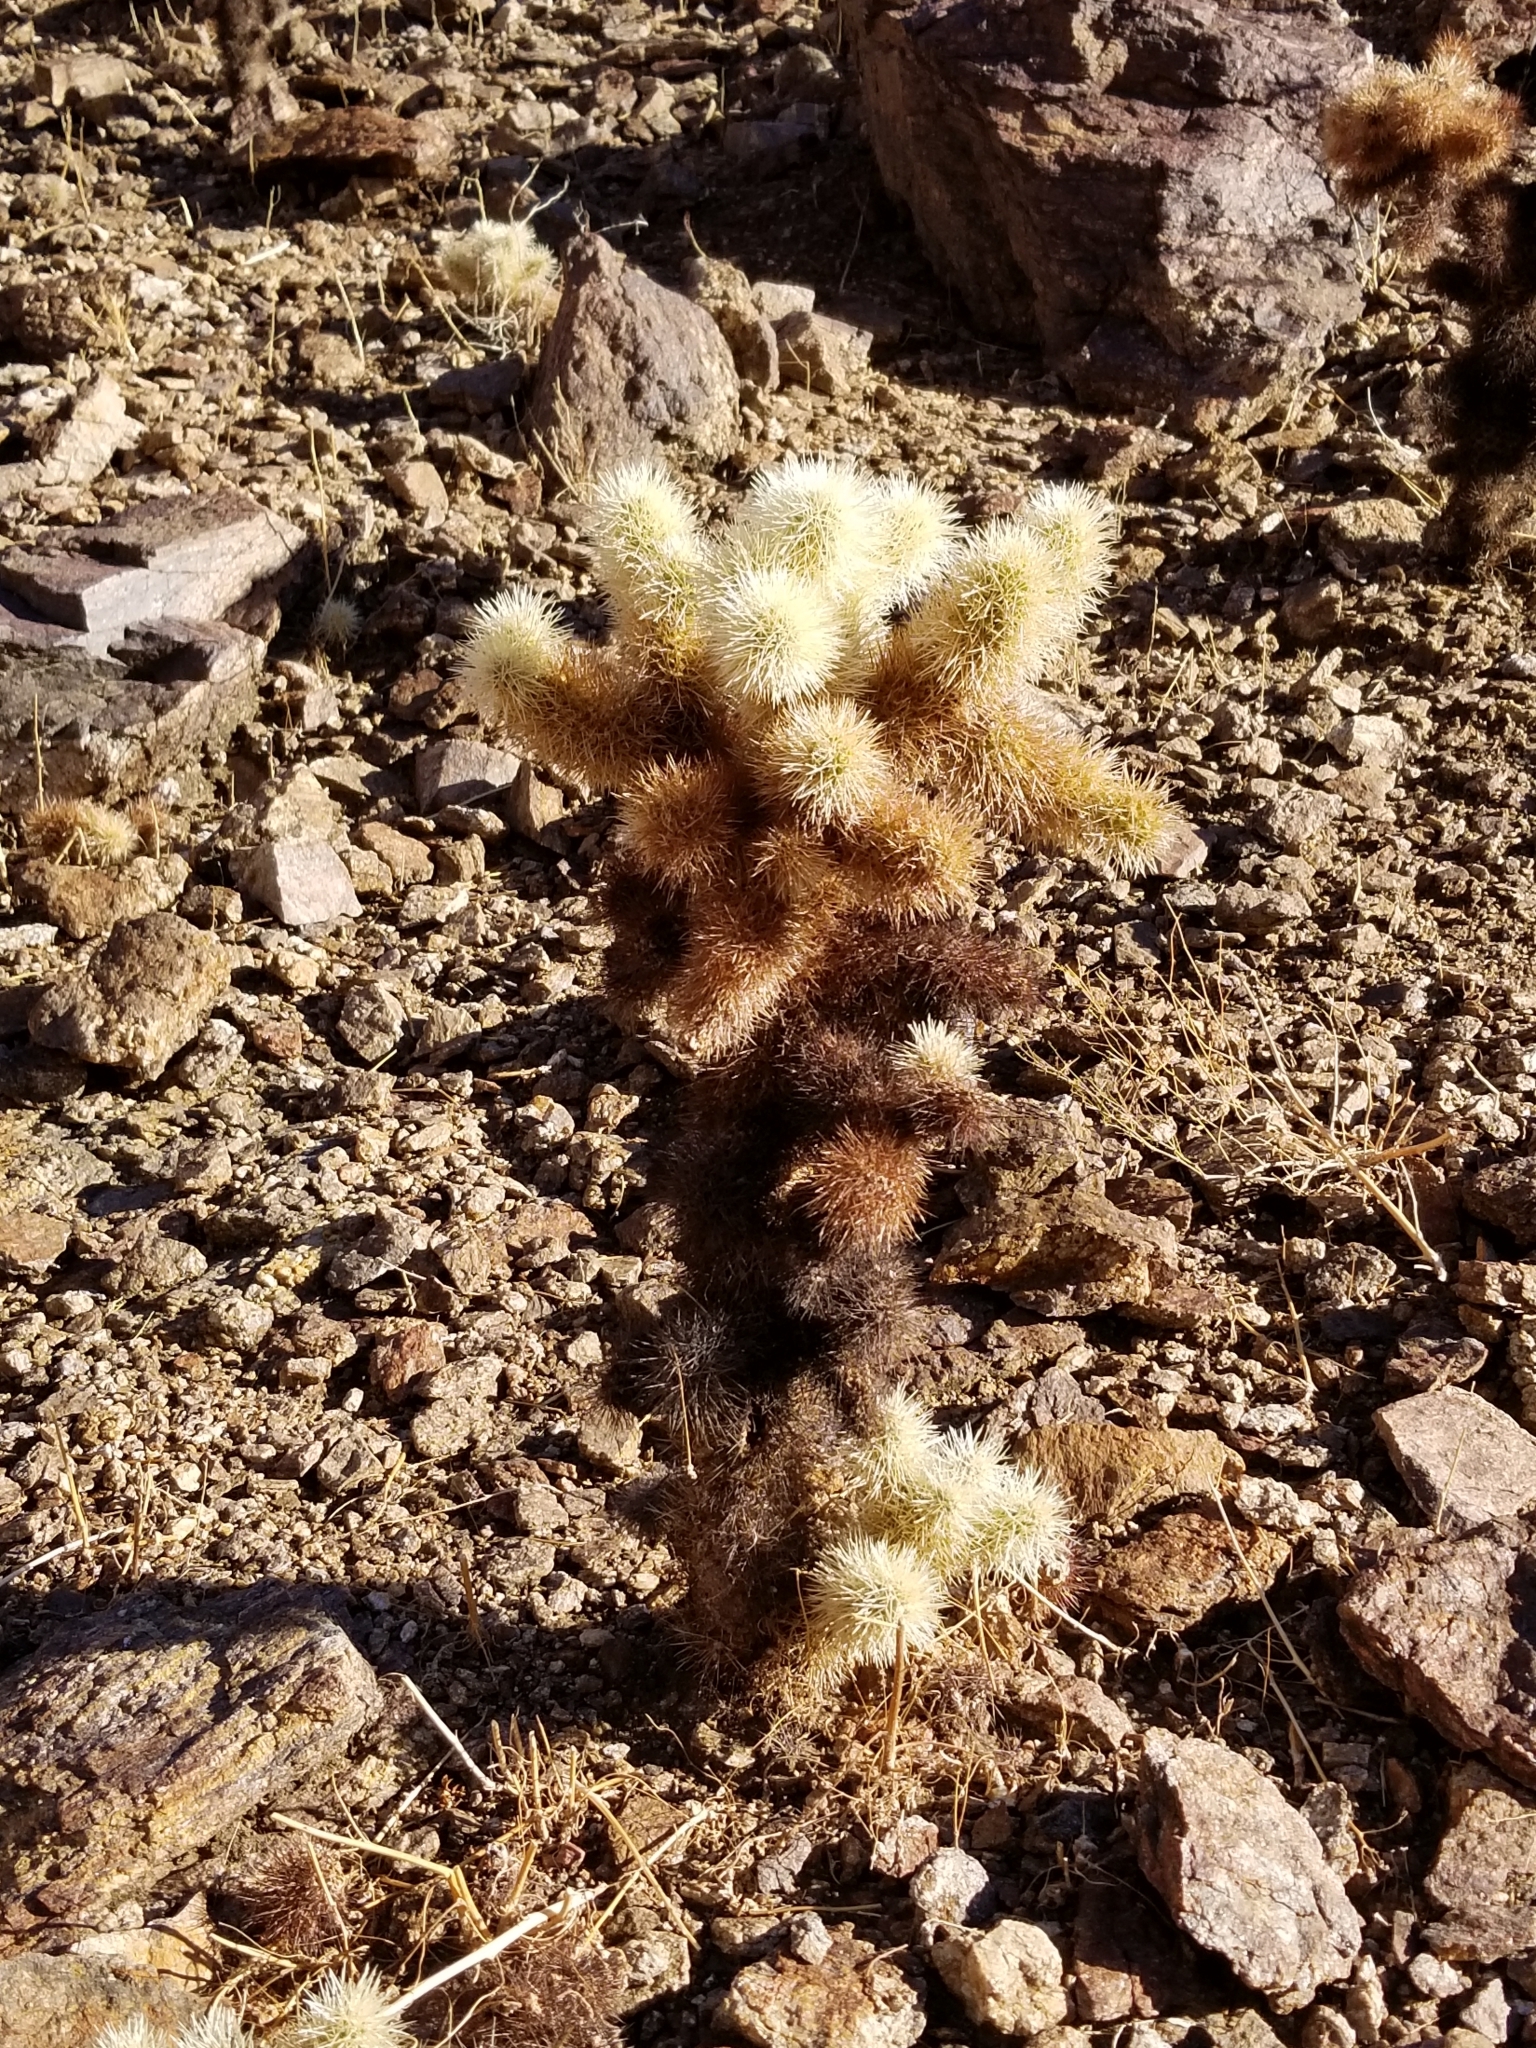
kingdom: Plantae
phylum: Tracheophyta
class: Magnoliopsida
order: Caryophyllales
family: Cactaceae
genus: Cylindropuntia
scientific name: Cylindropuntia fosbergii
